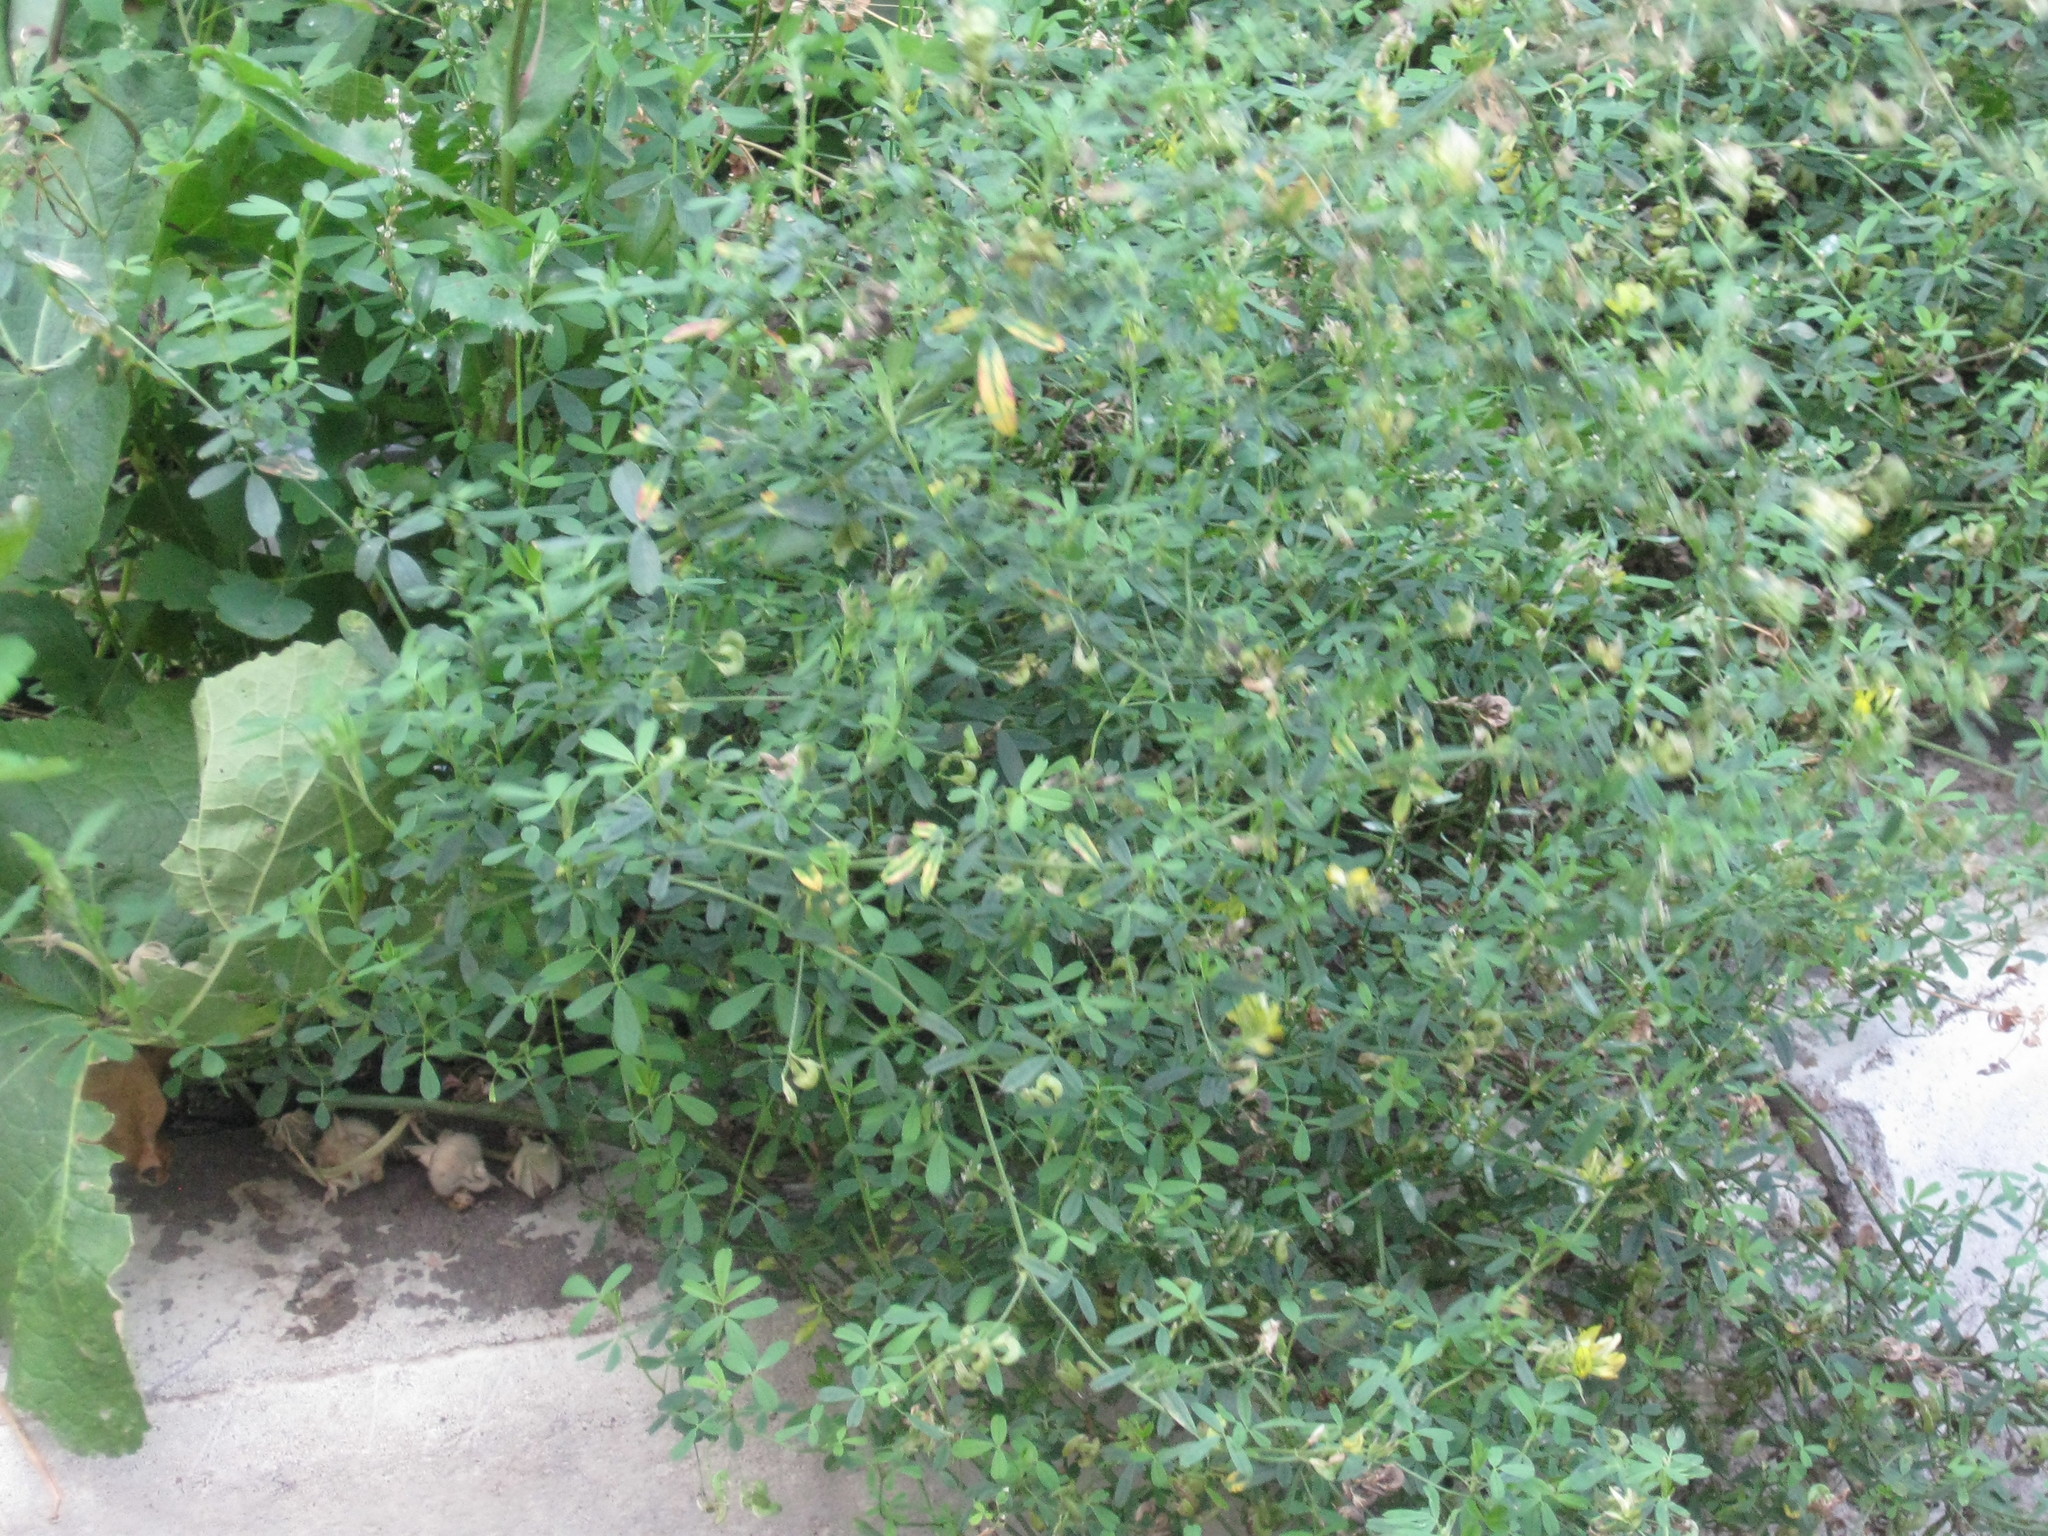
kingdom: Plantae
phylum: Tracheophyta
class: Magnoliopsida
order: Fabales
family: Fabaceae
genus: Medicago
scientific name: Medicago
